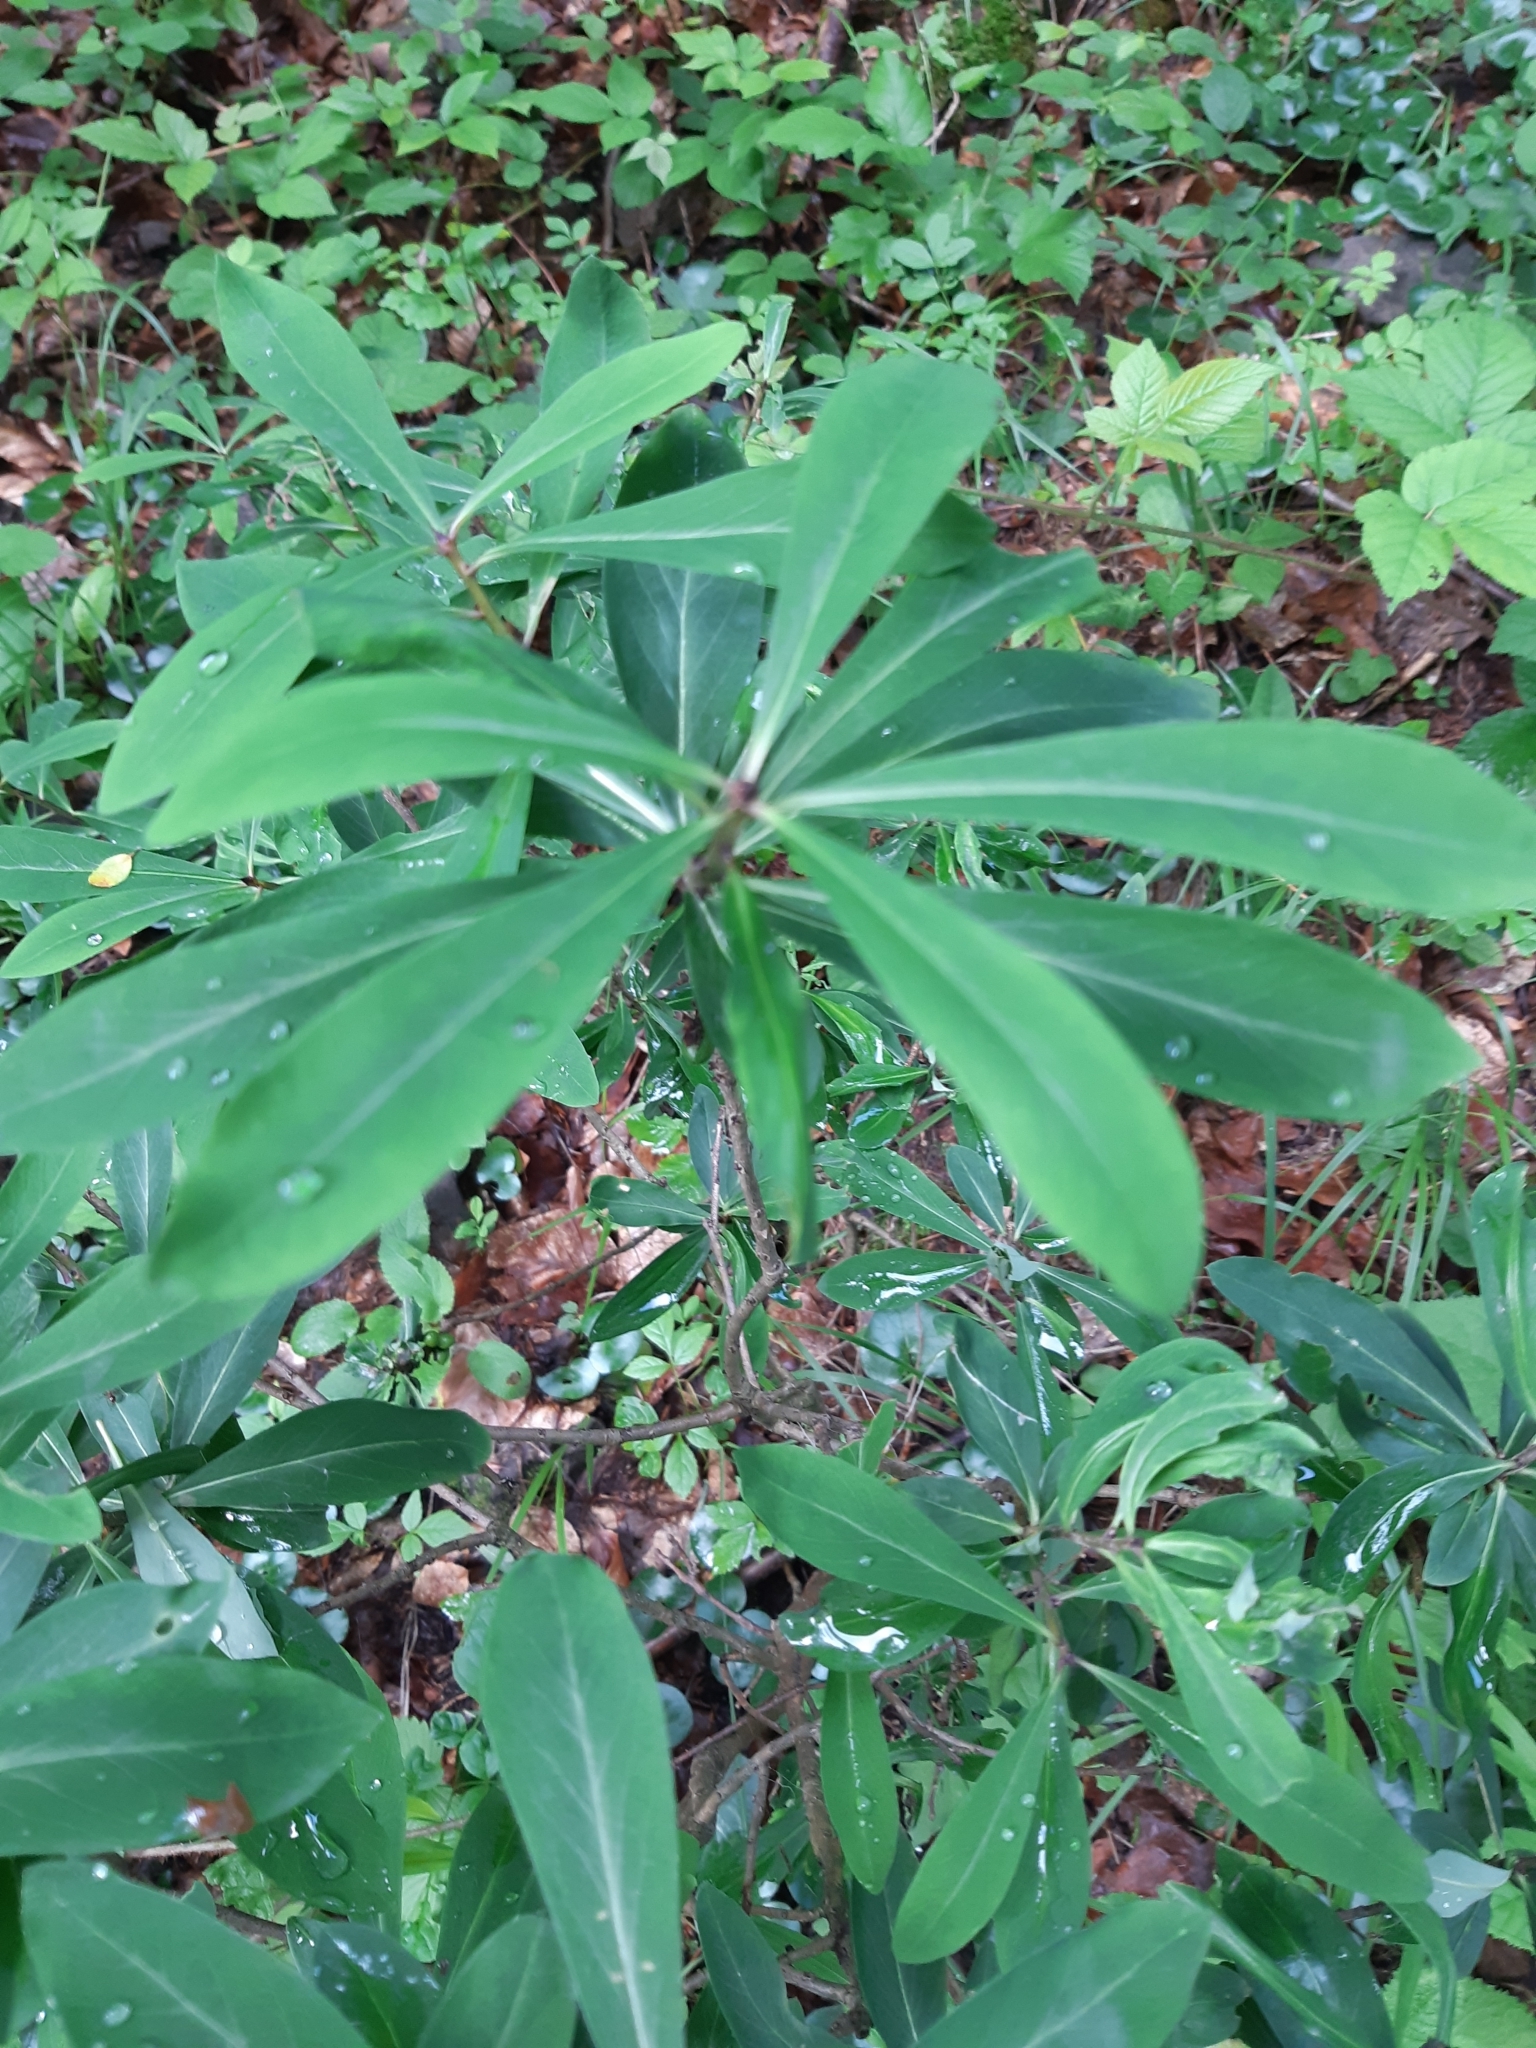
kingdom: Plantae
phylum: Tracheophyta
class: Magnoliopsida
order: Malvales
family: Thymelaeaceae
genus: Daphne
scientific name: Daphne mezereum
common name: Mezereon
